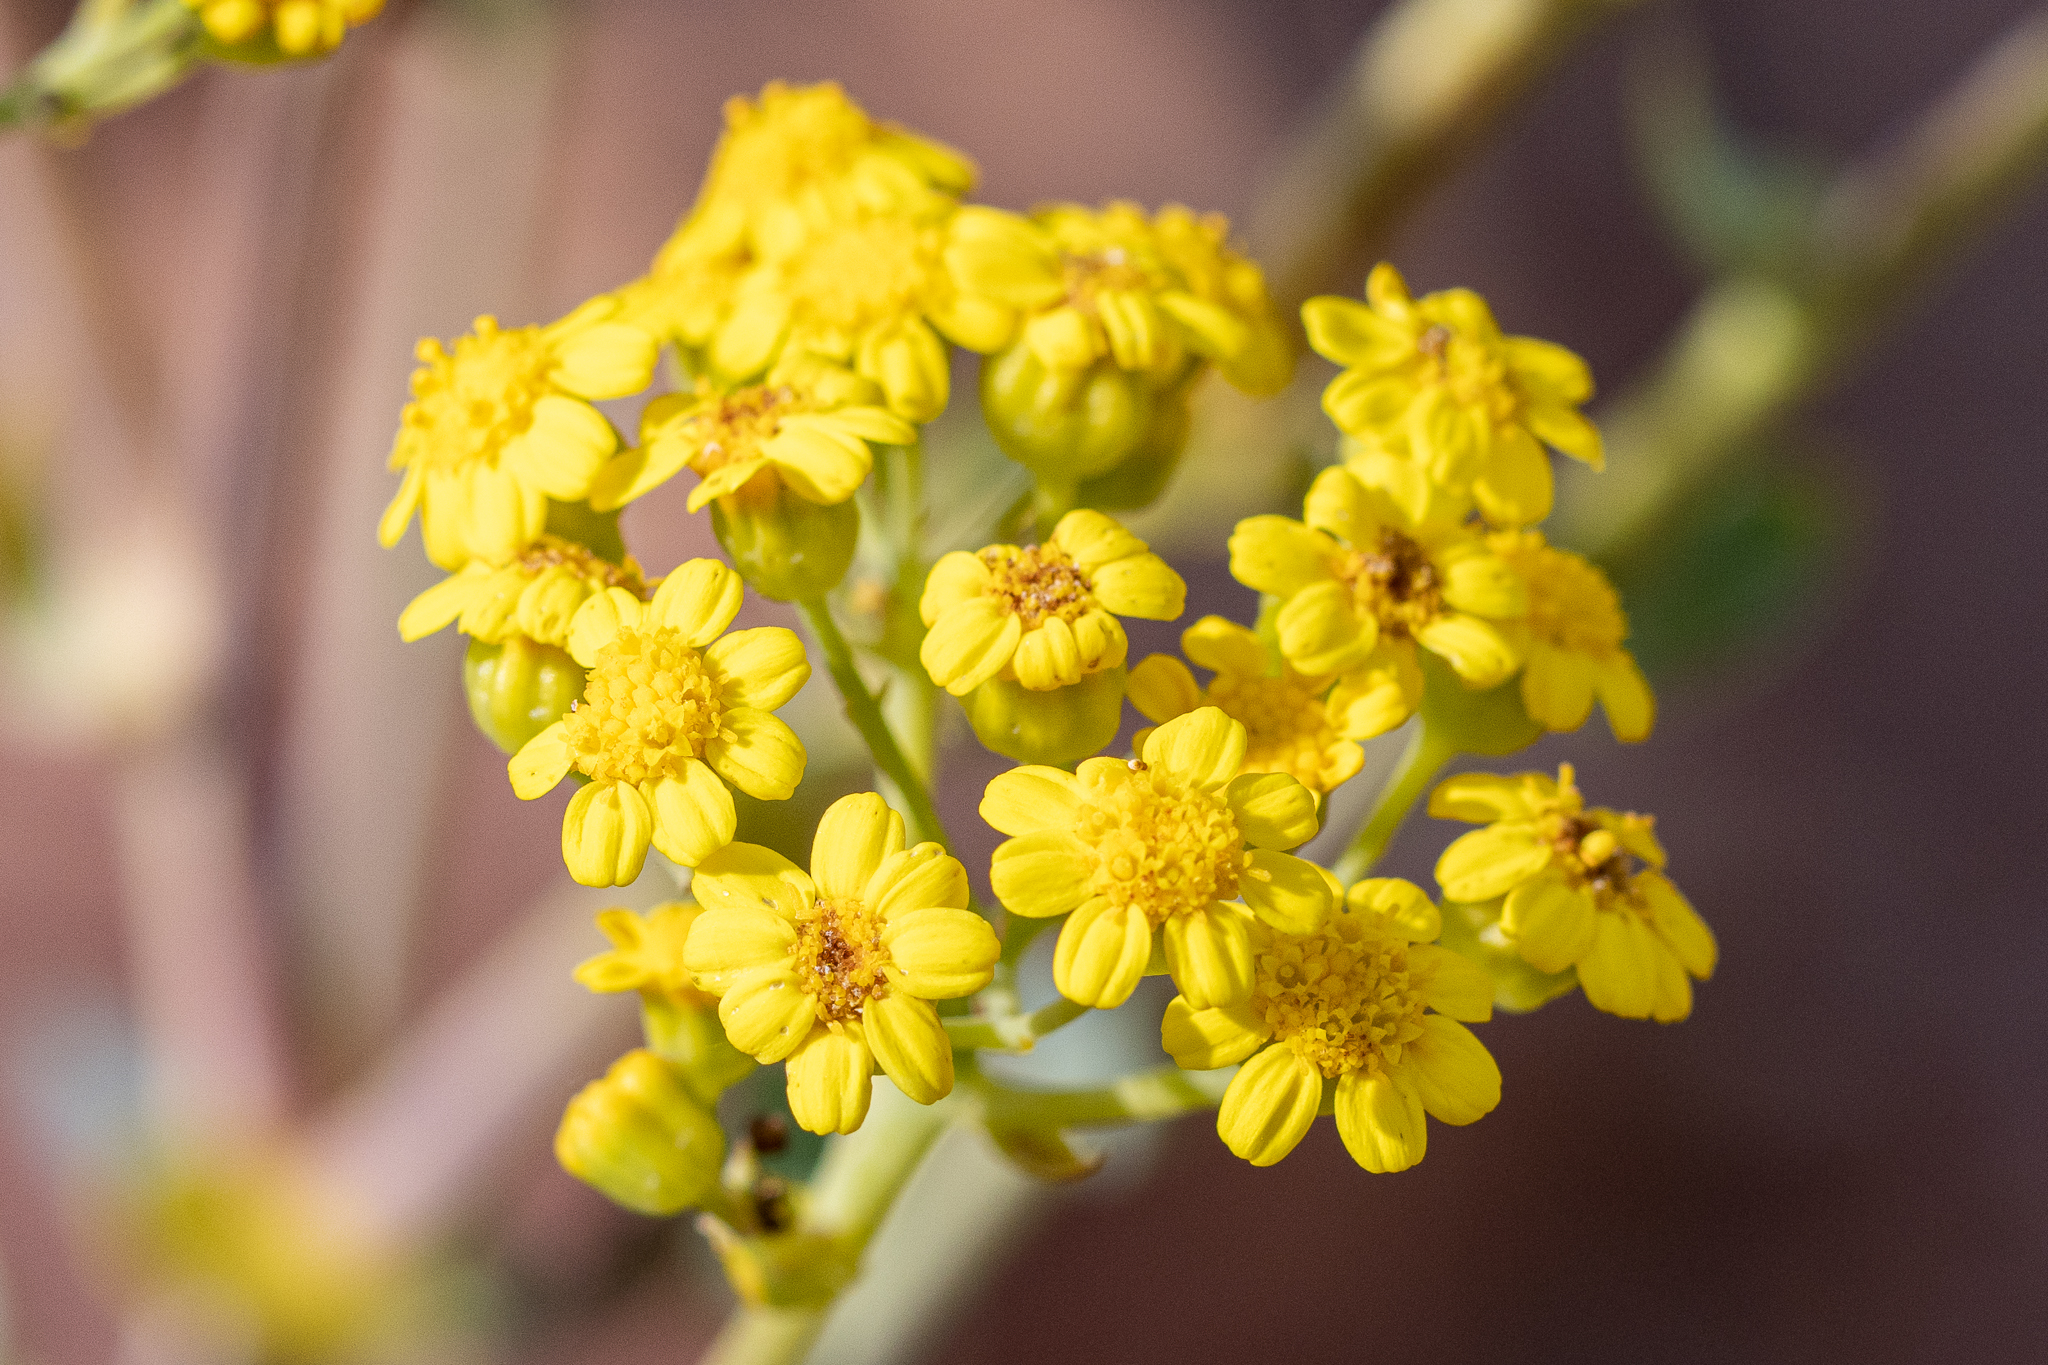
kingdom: Plantae
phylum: Tracheophyta
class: Magnoliopsida
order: Asterales
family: Asteraceae
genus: Othonna
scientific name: Othonna parviflora
